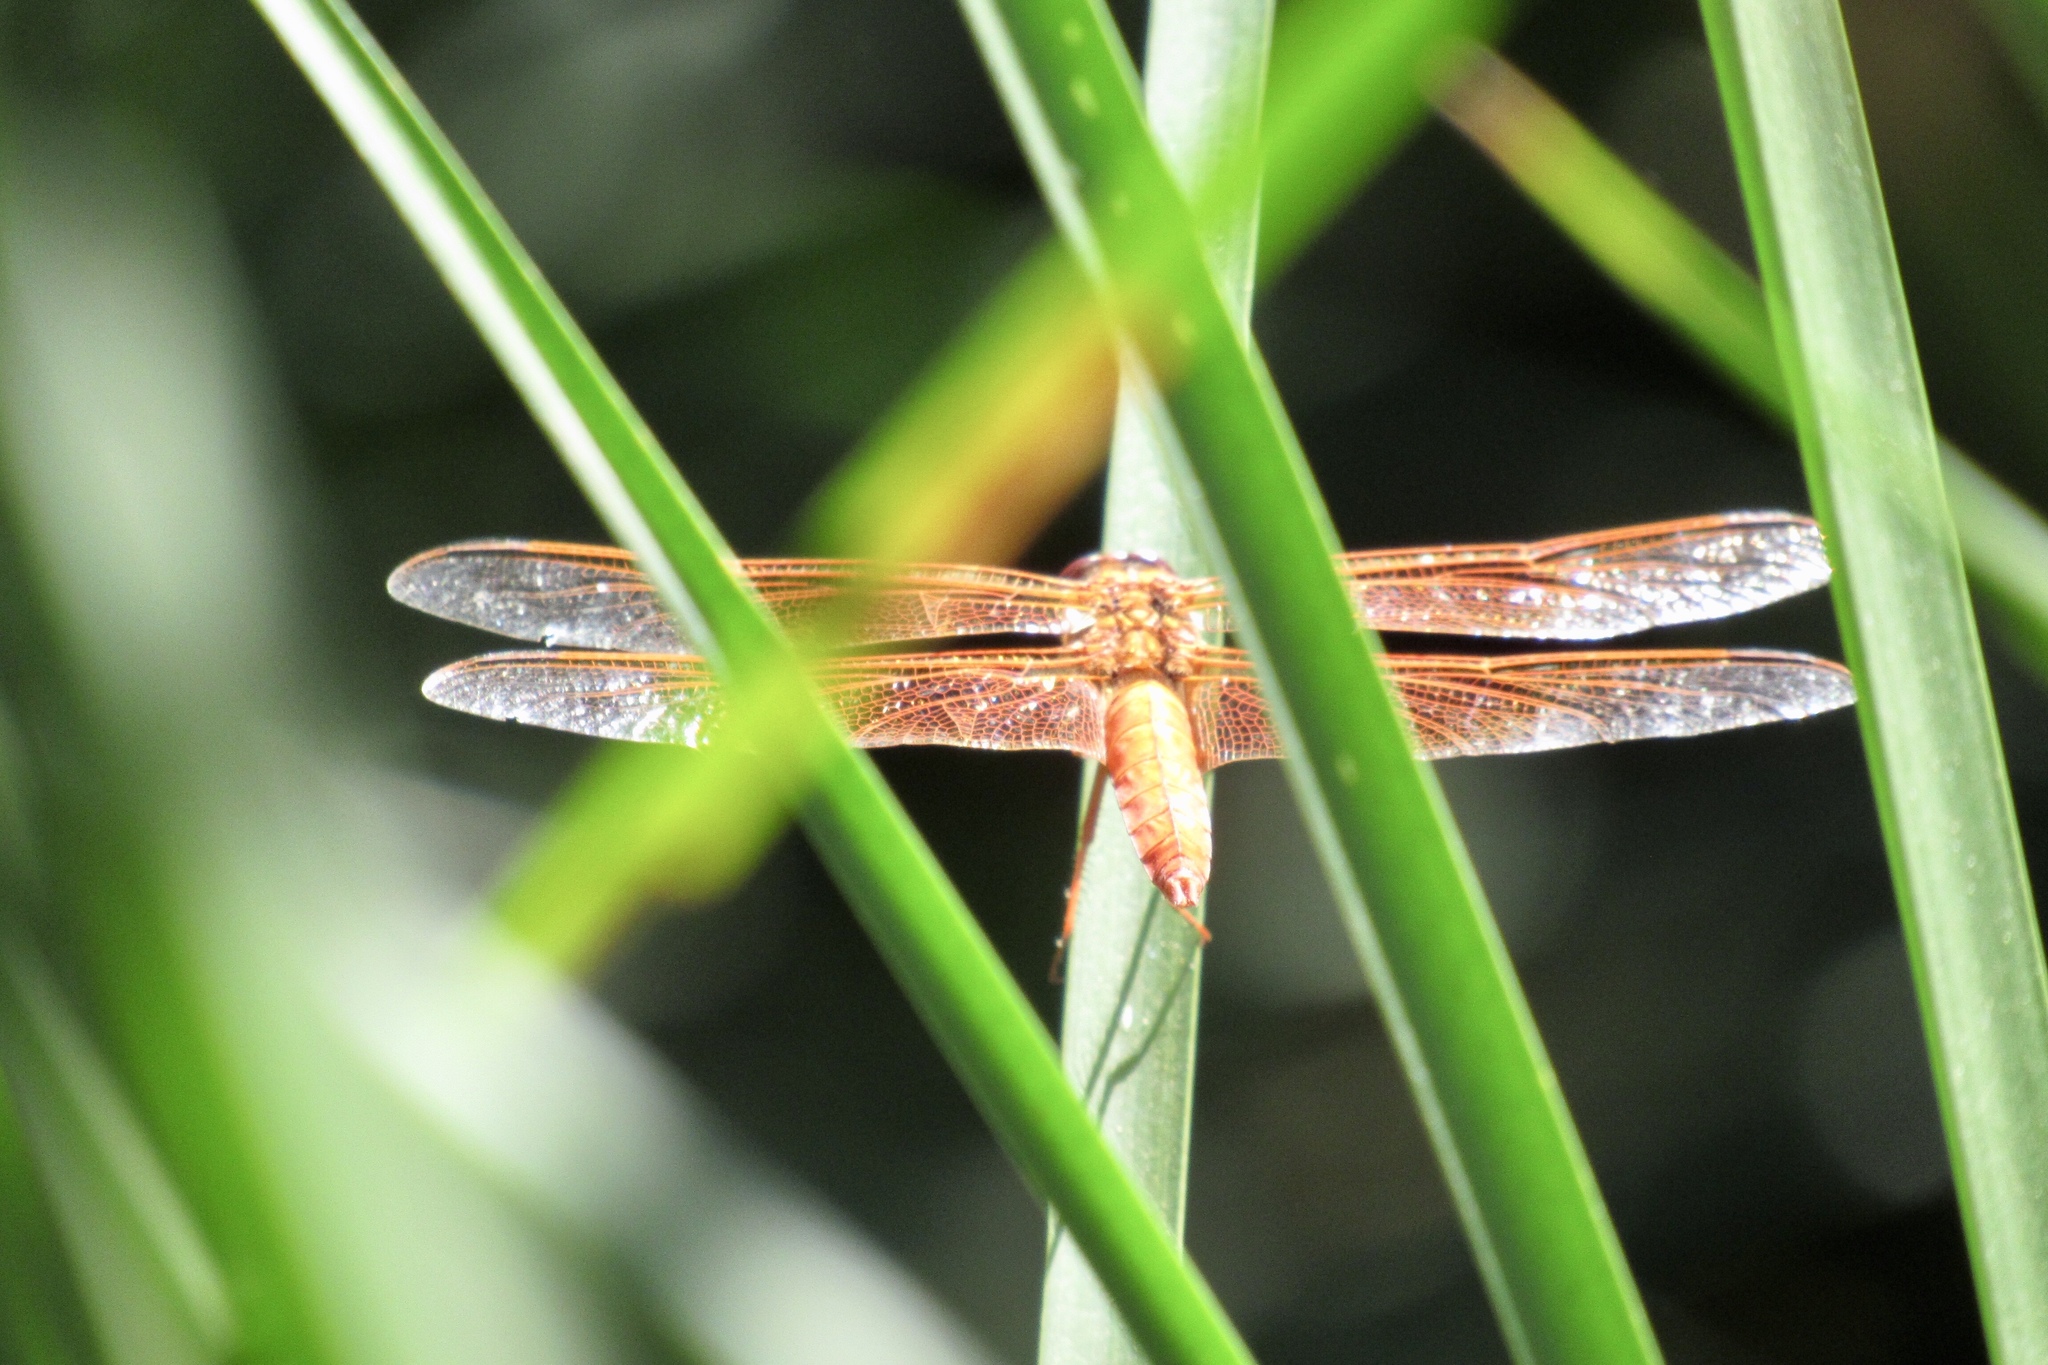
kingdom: Animalia
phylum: Arthropoda
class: Insecta
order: Odonata
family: Libellulidae
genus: Libellula
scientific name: Libellula saturata
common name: Flame skimmer
